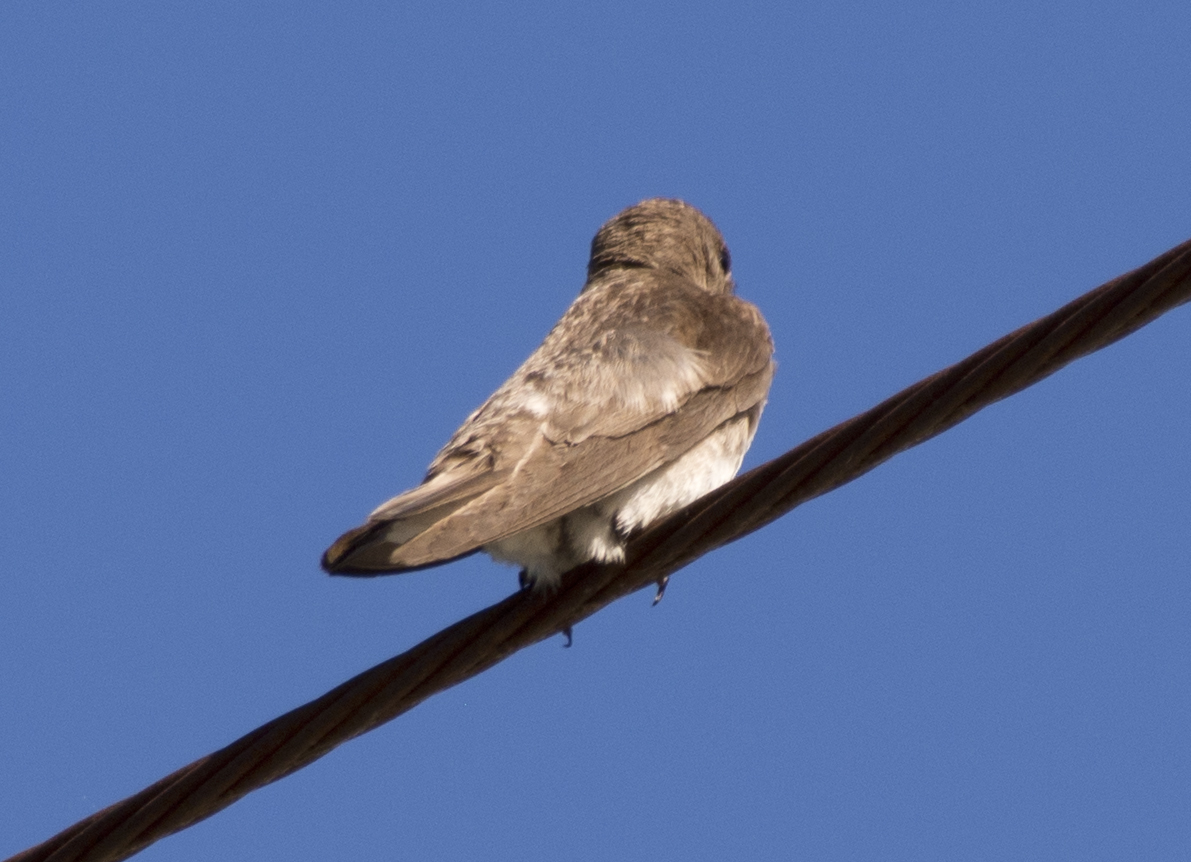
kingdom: Animalia
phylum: Chordata
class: Aves
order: Passeriformes
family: Hirundinidae
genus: Stelgidopteryx
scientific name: Stelgidopteryx serripennis
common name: Northern rough-winged swallow
